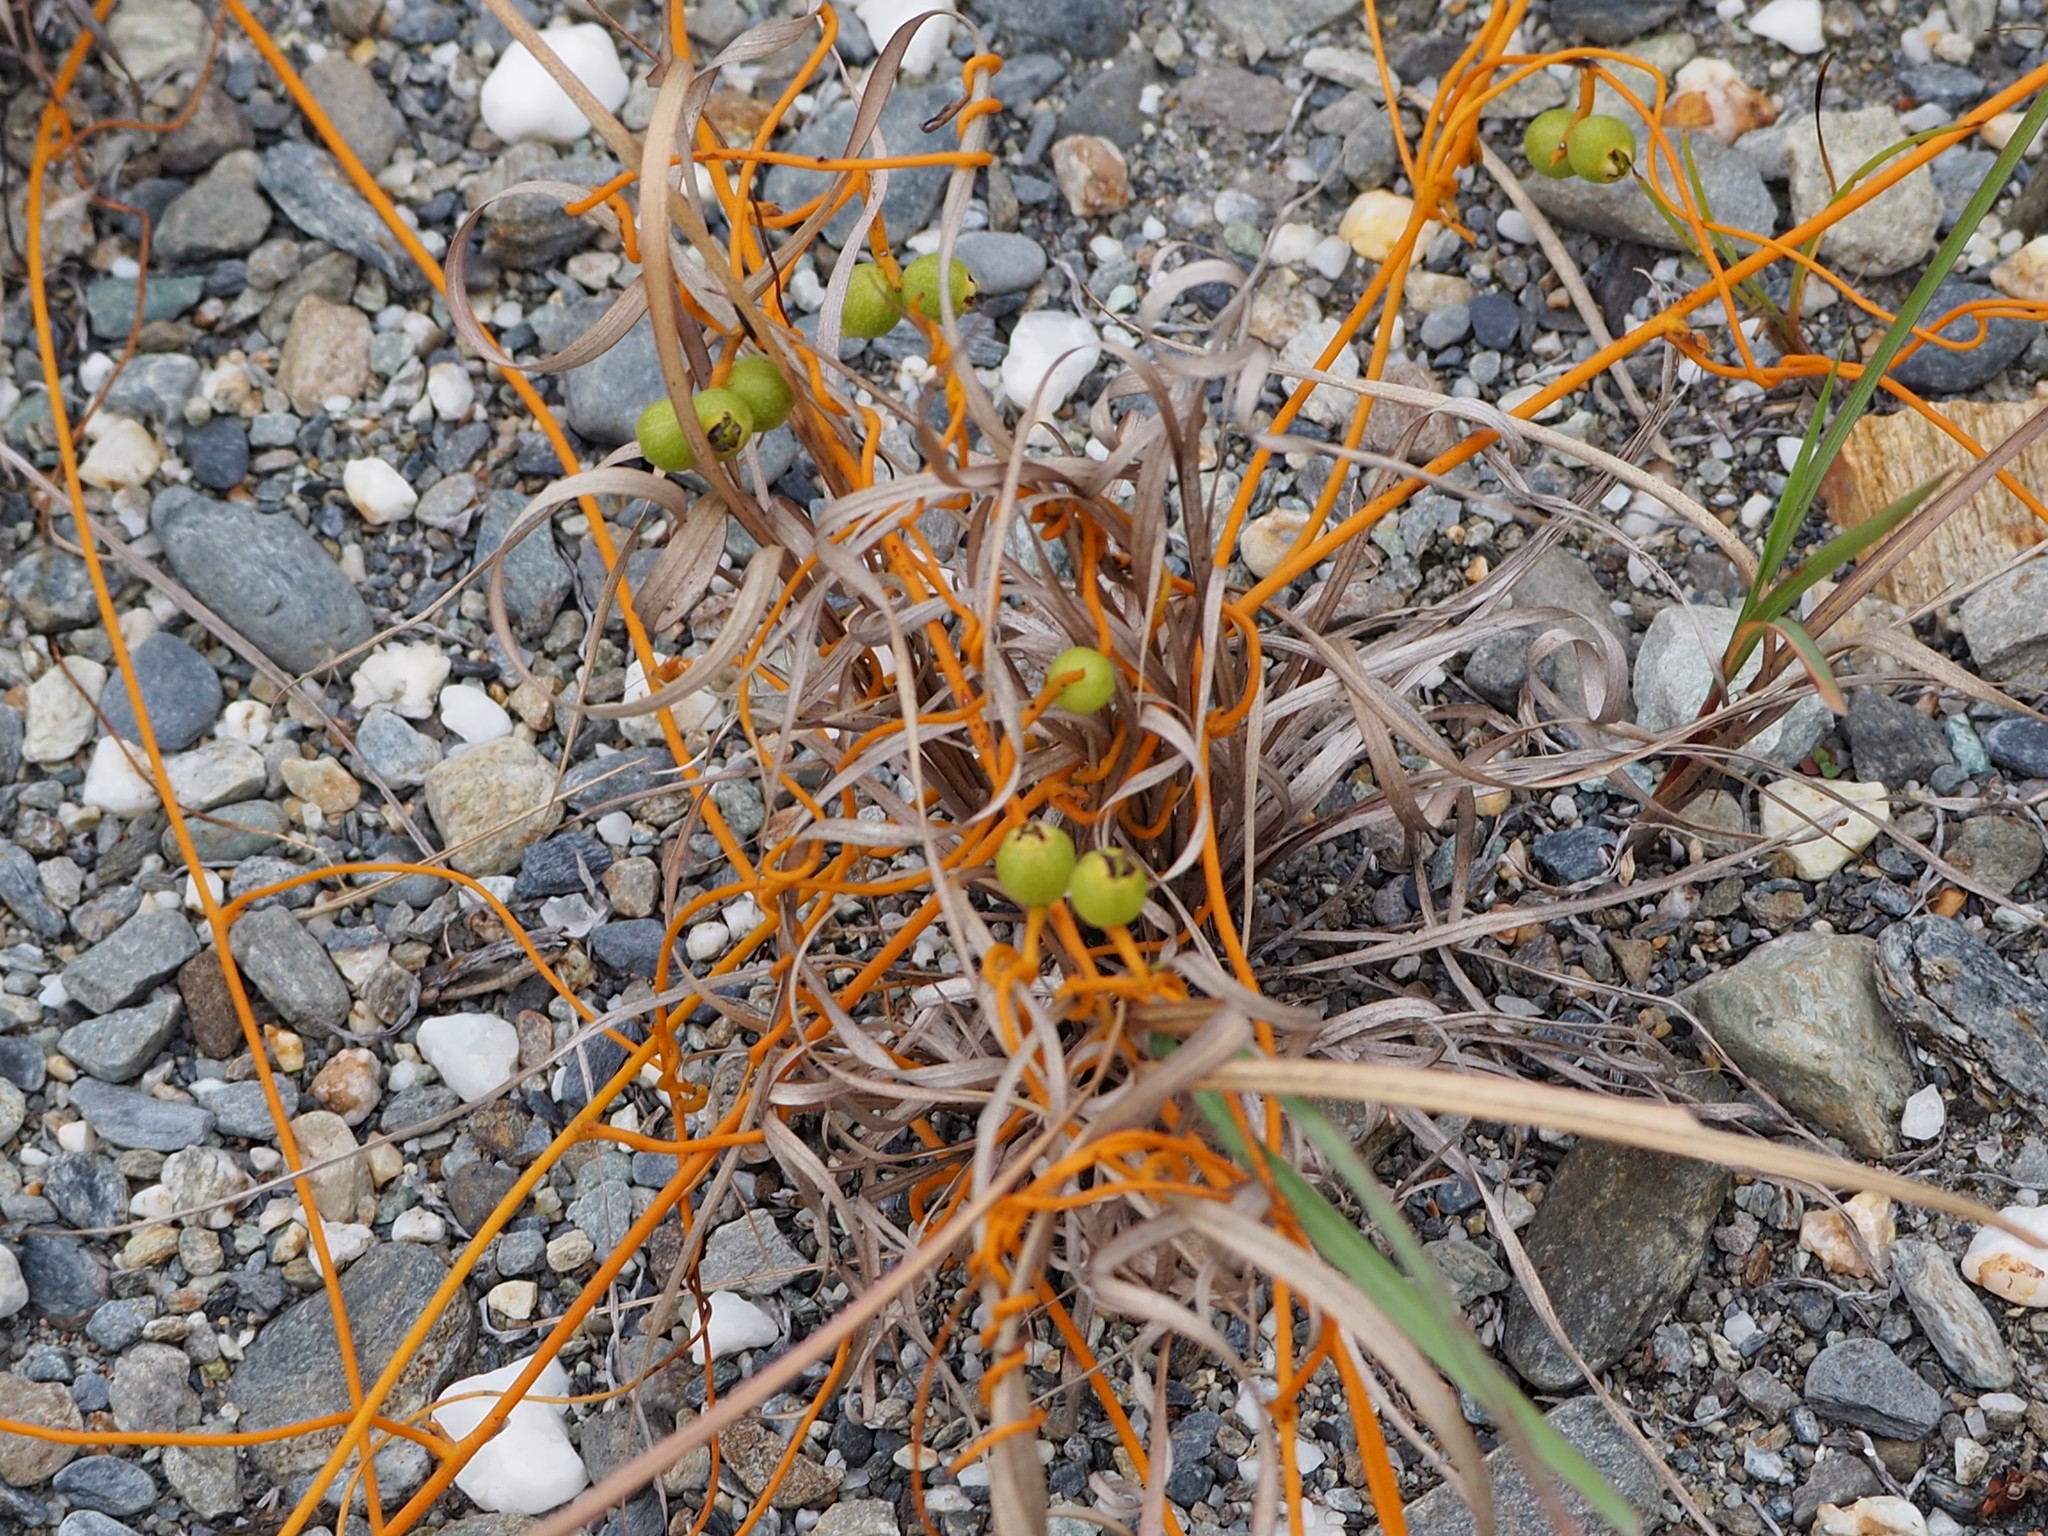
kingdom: Plantae
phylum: Tracheophyta
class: Magnoliopsida
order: Laurales
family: Lauraceae
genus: Cassytha
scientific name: Cassytha filiformis
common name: Dodder-laurel
